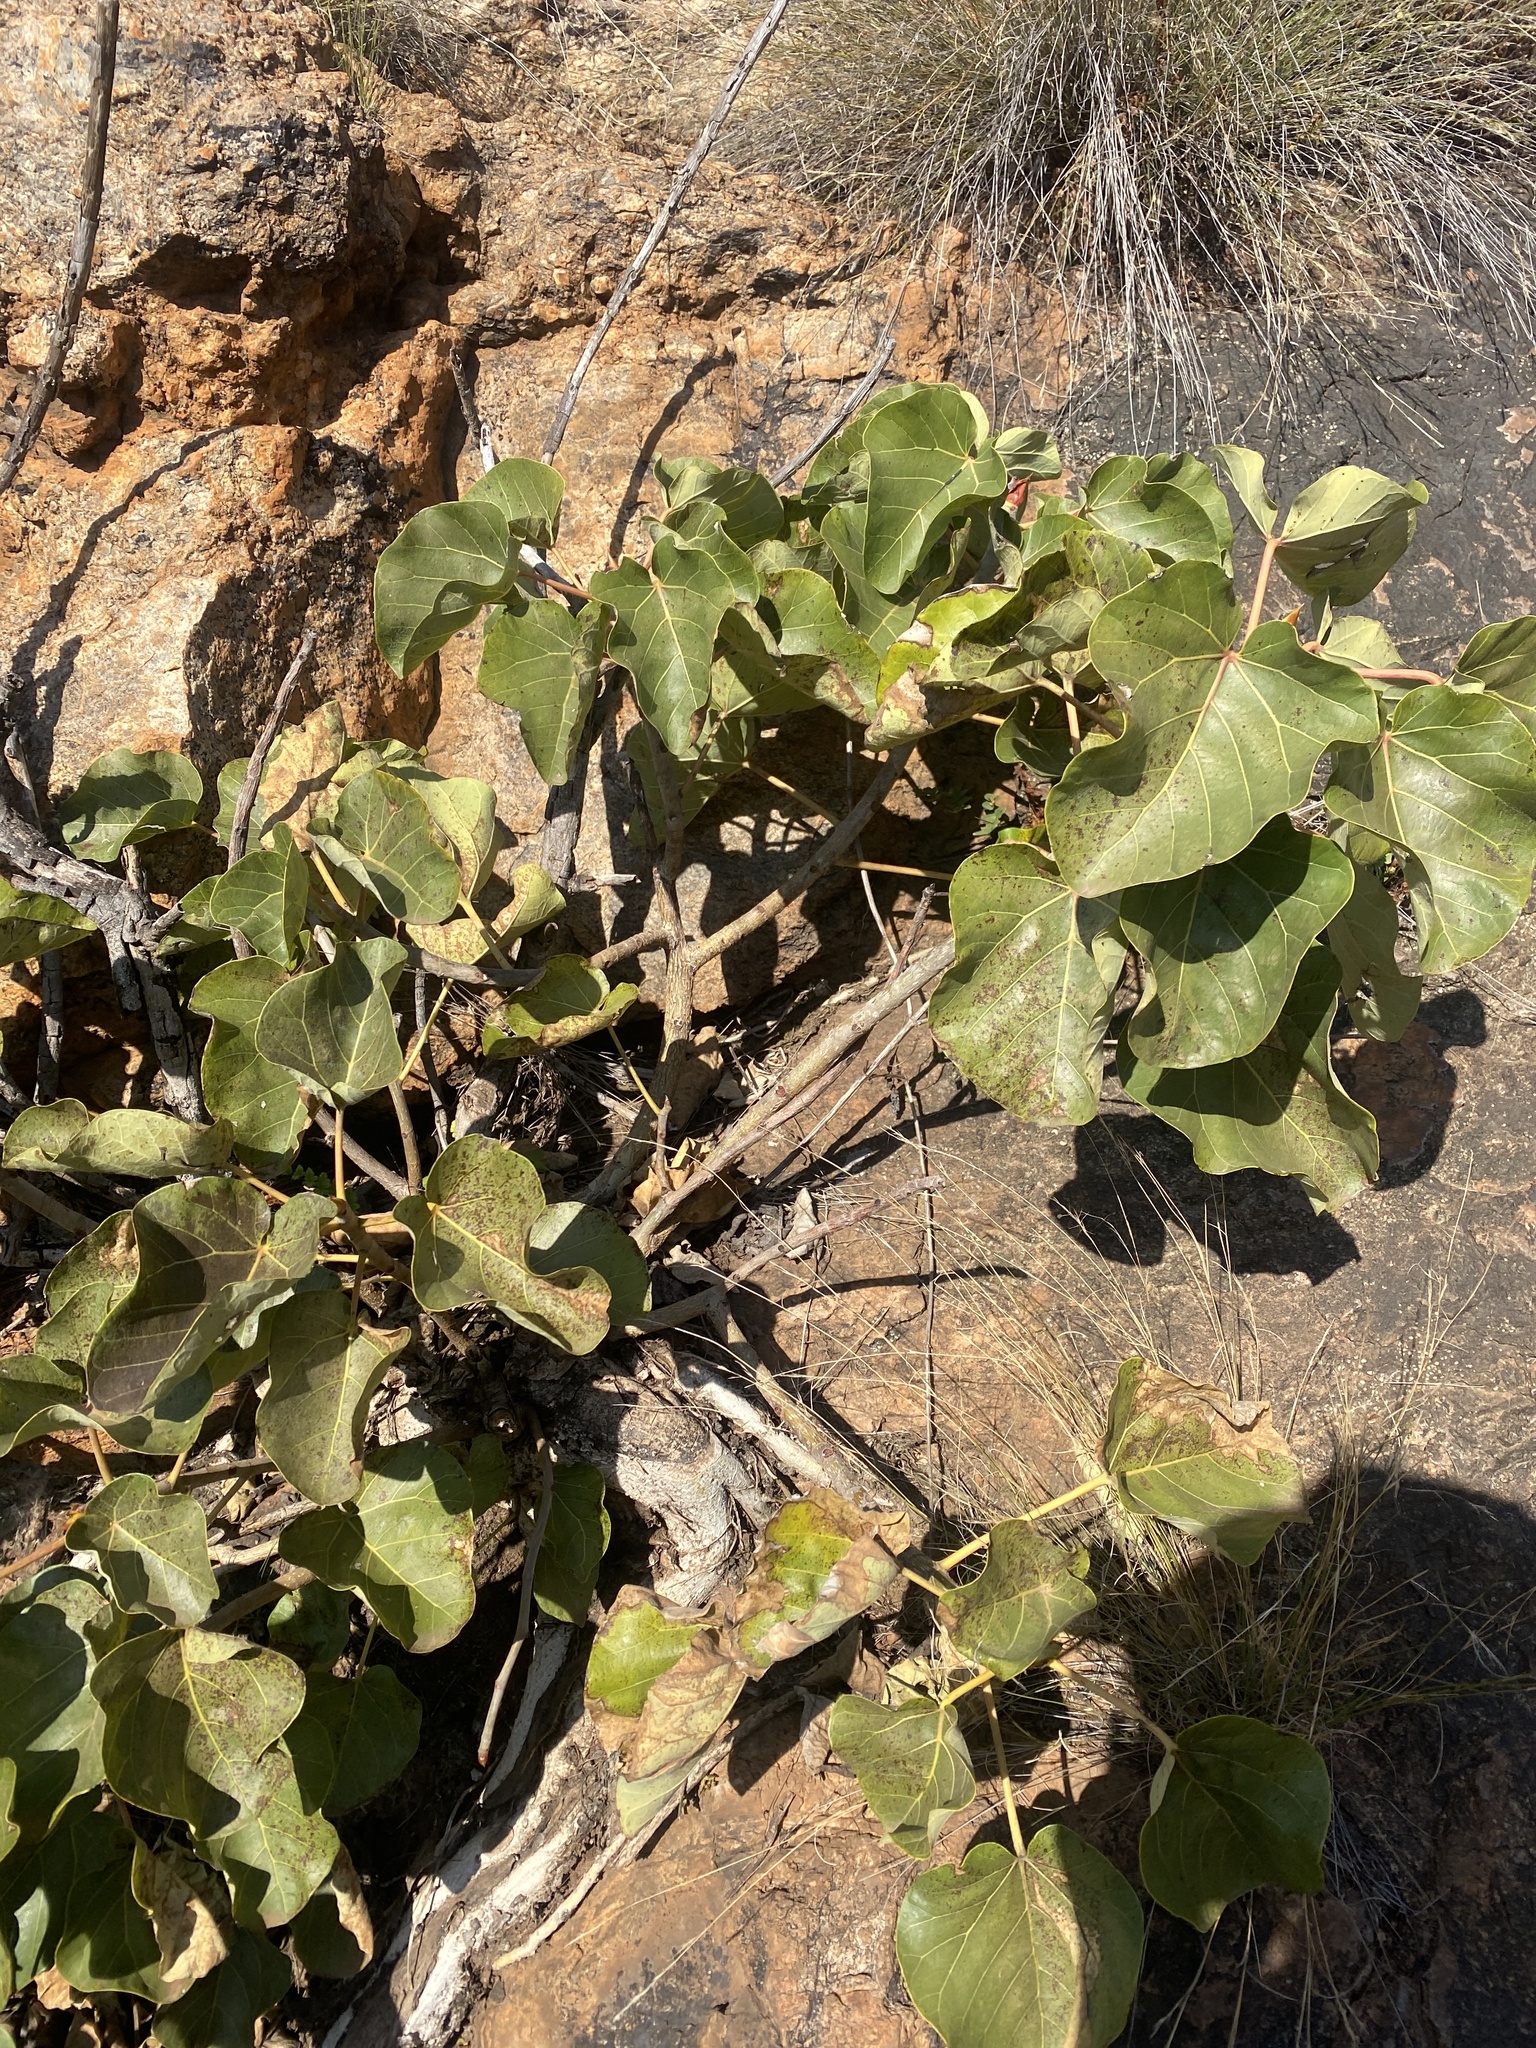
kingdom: Plantae
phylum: Tracheophyta
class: Magnoliopsida
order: Rosales
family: Moraceae
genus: Ficus
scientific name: Ficus abutilifolia
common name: Large-leaved rock fig
